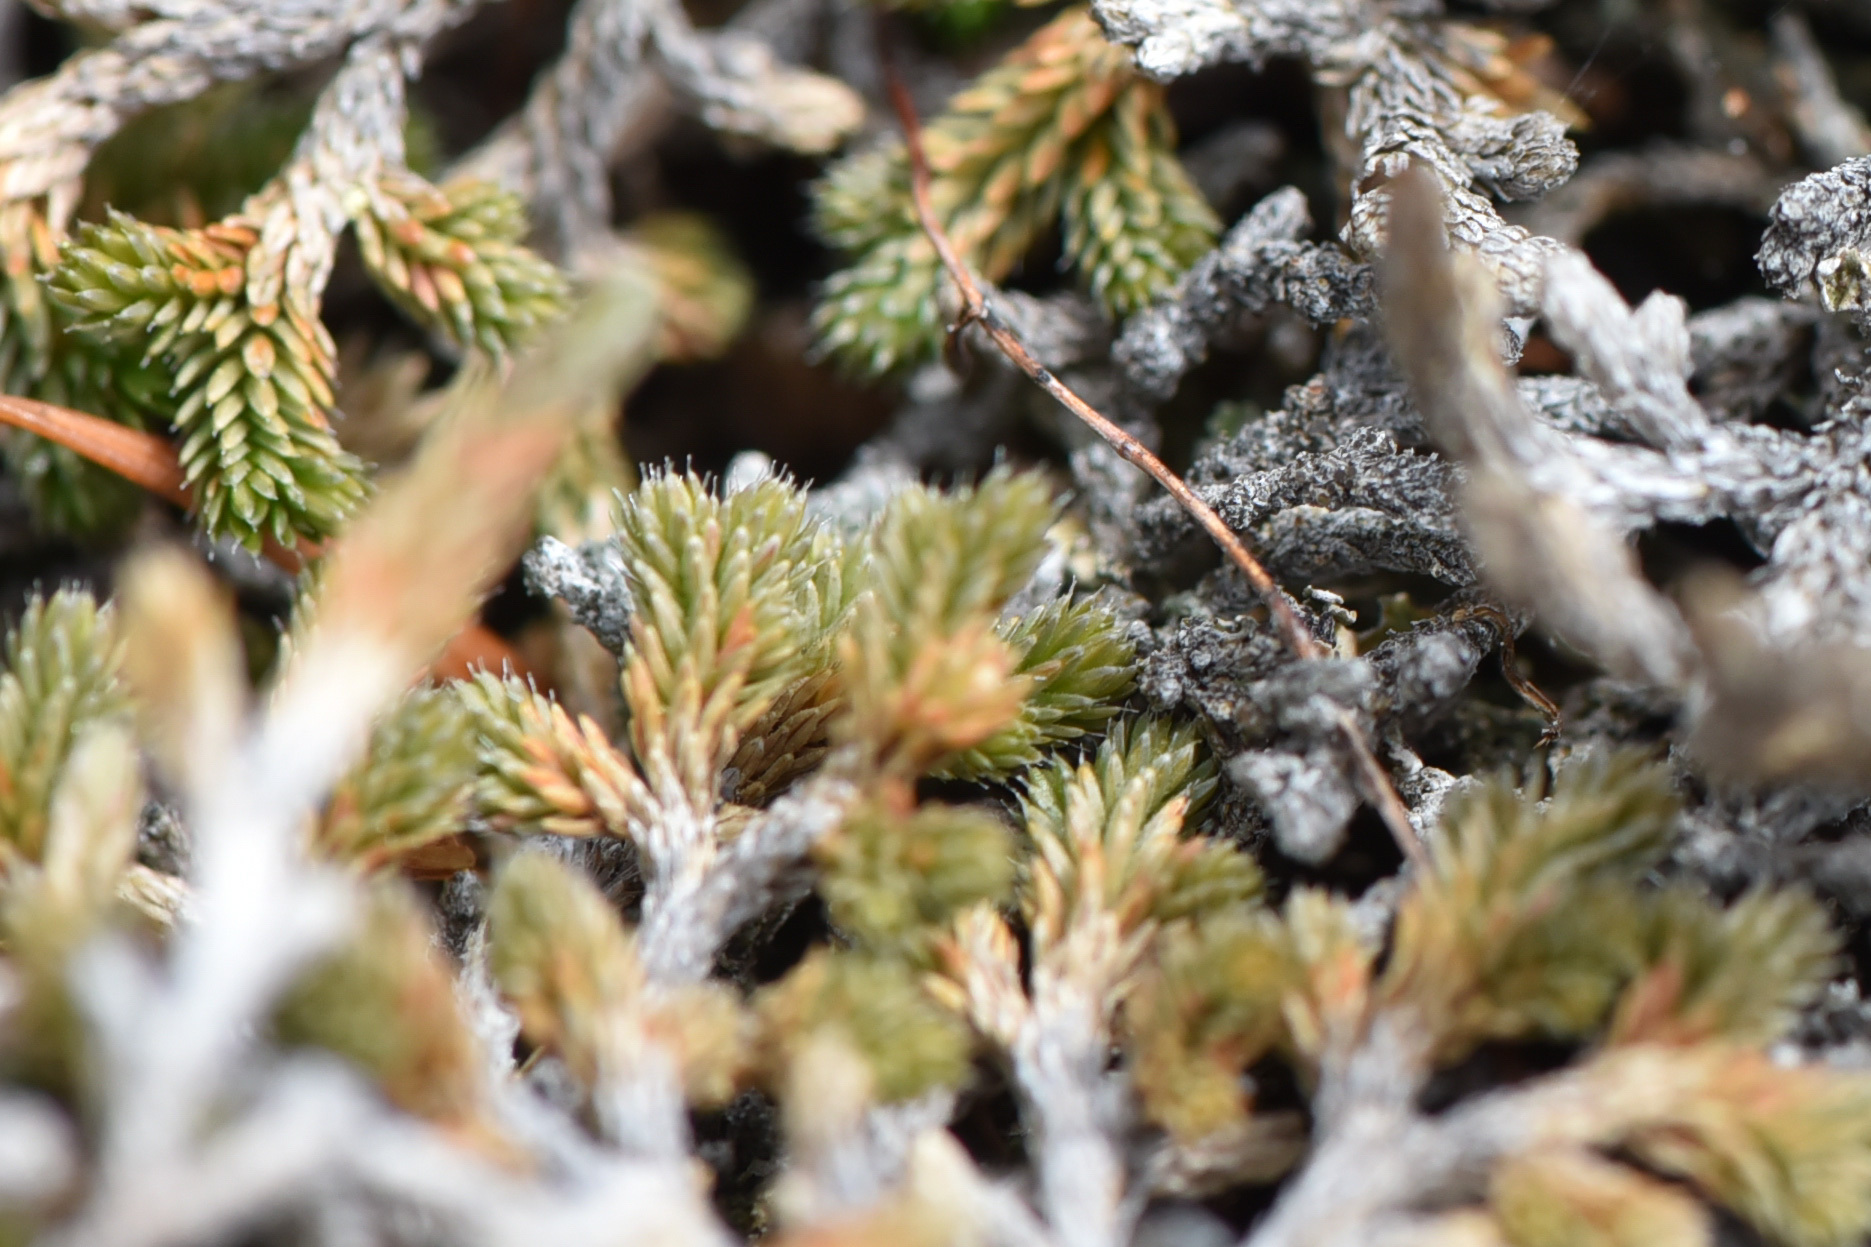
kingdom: Plantae
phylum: Tracheophyta
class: Lycopodiopsida
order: Selaginellales
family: Selaginellaceae
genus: Selaginella
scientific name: Selaginella wallacei
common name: Wallace's selaginella
